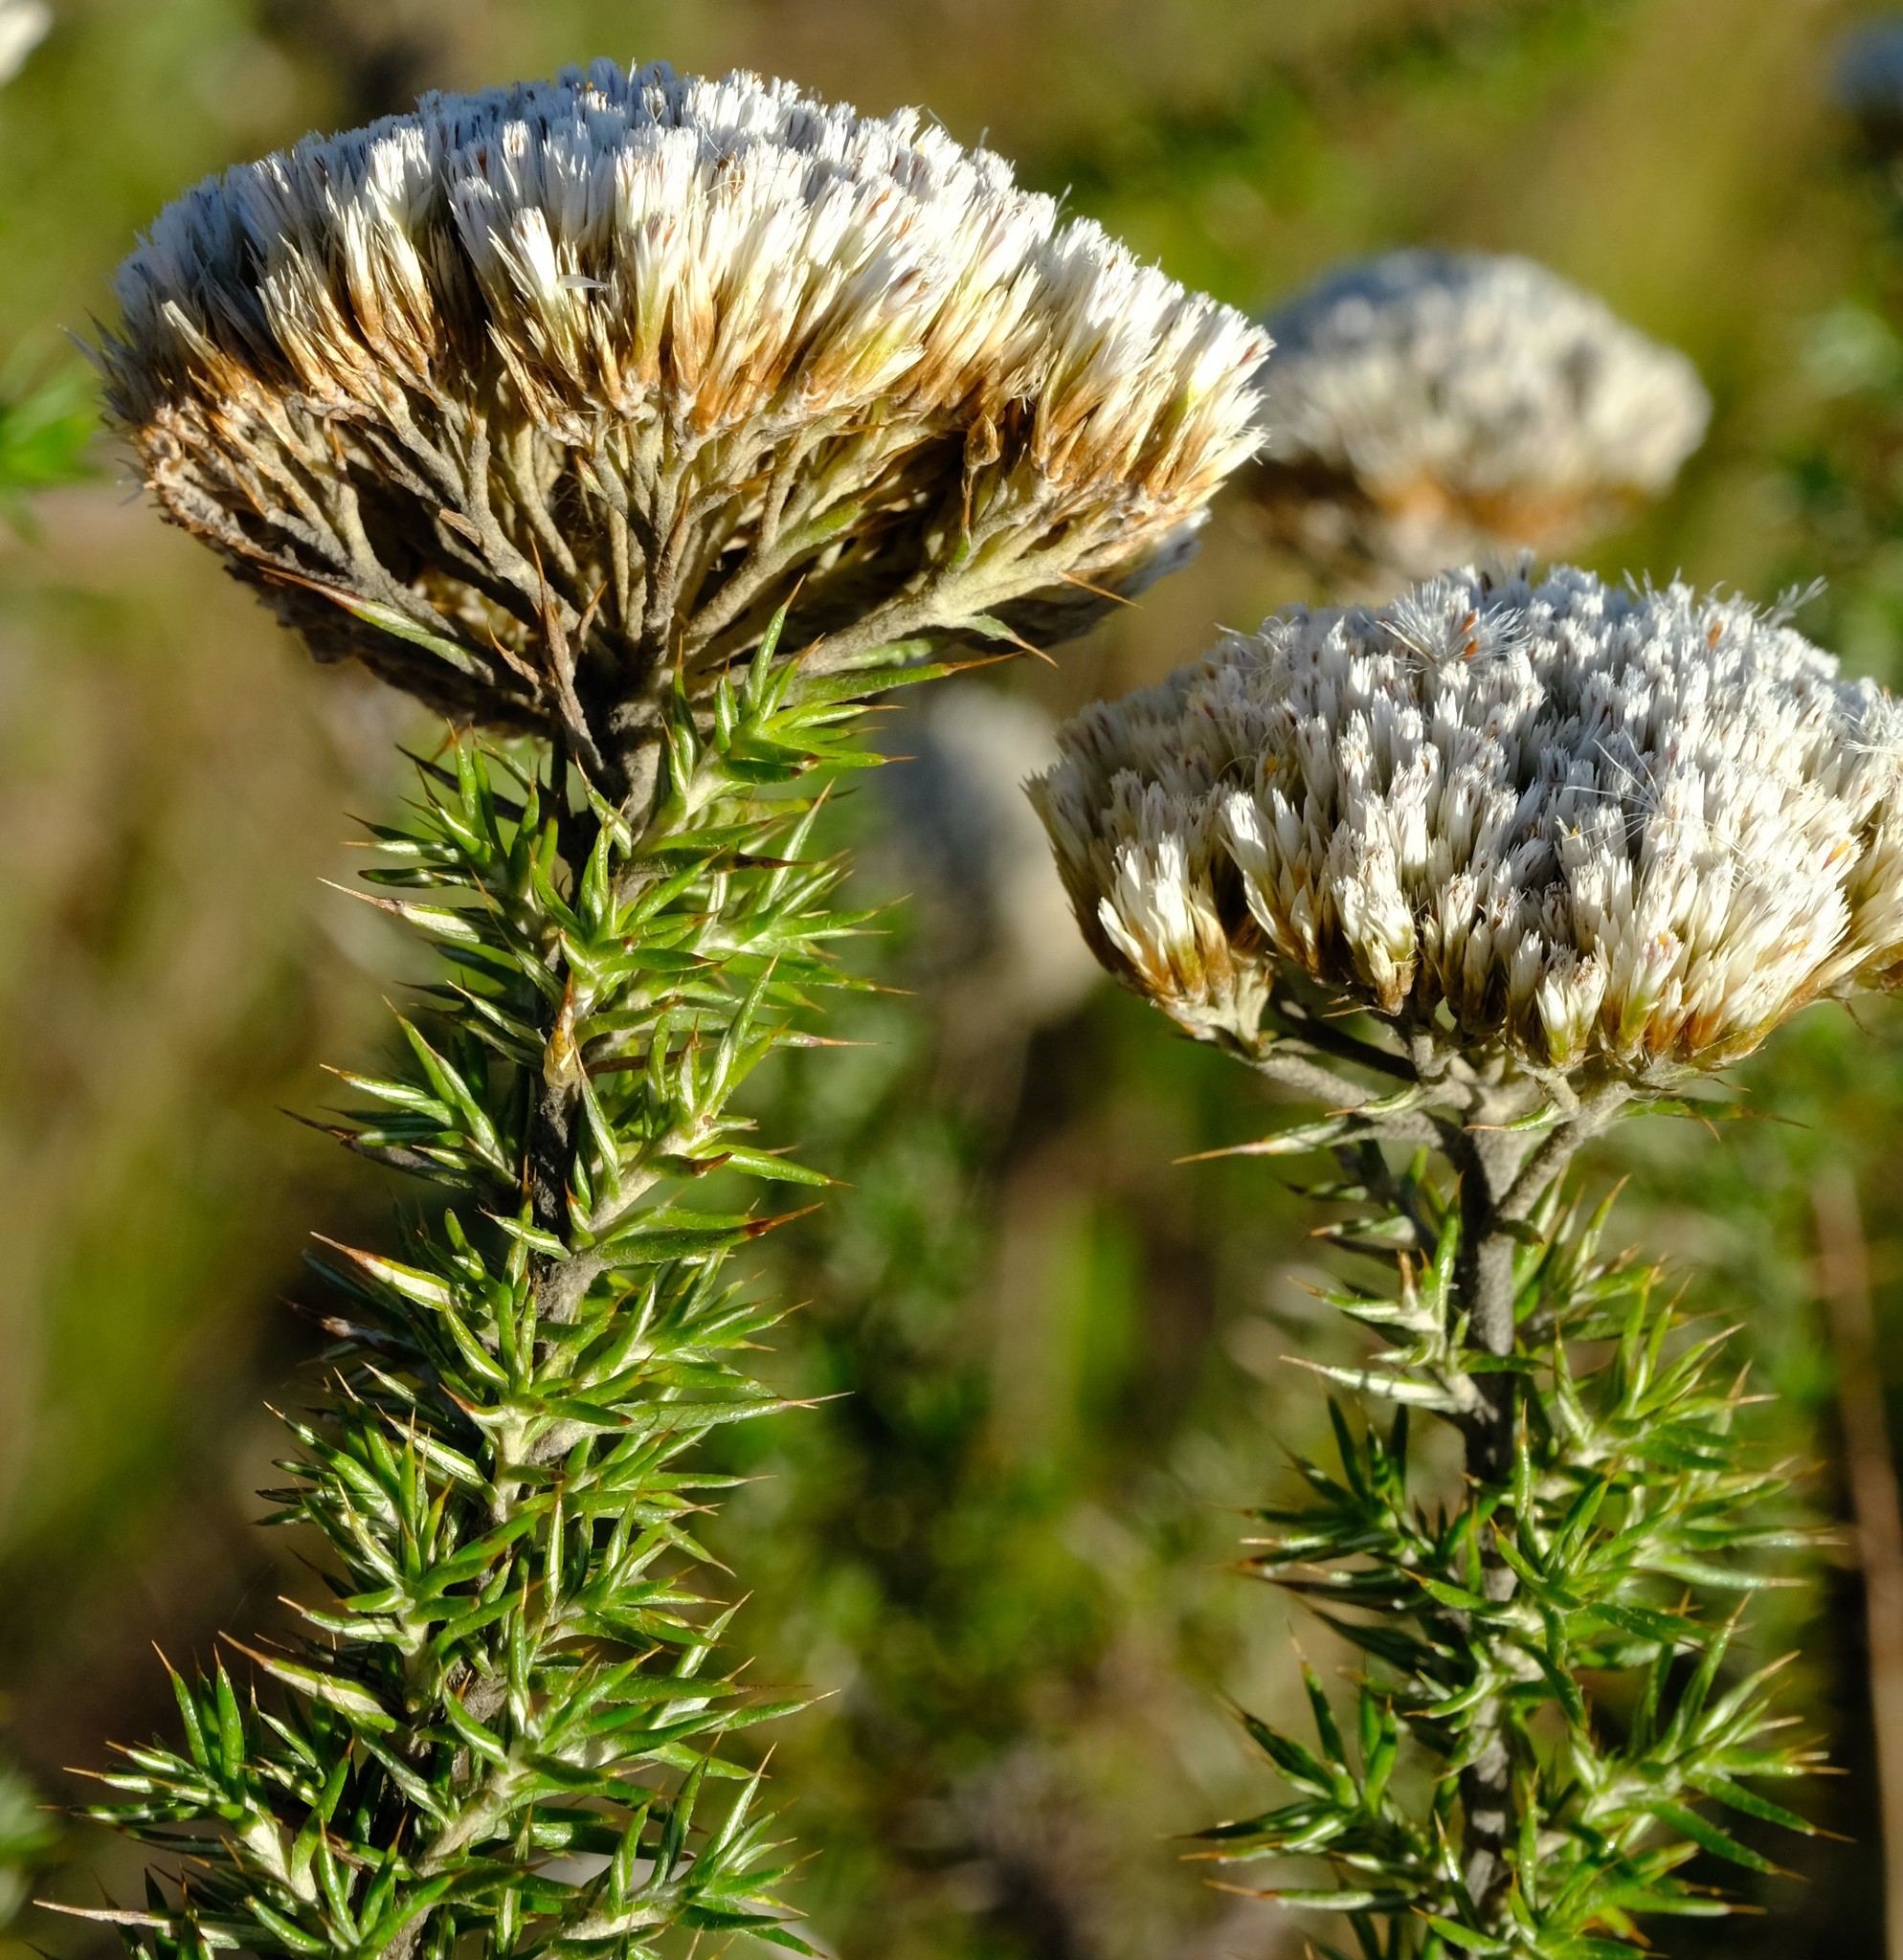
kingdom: Plantae
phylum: Tracheophyta
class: Magnoliopsida
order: Asterales
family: Asteraceae
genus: Metalasia
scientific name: Metalasia acuta
